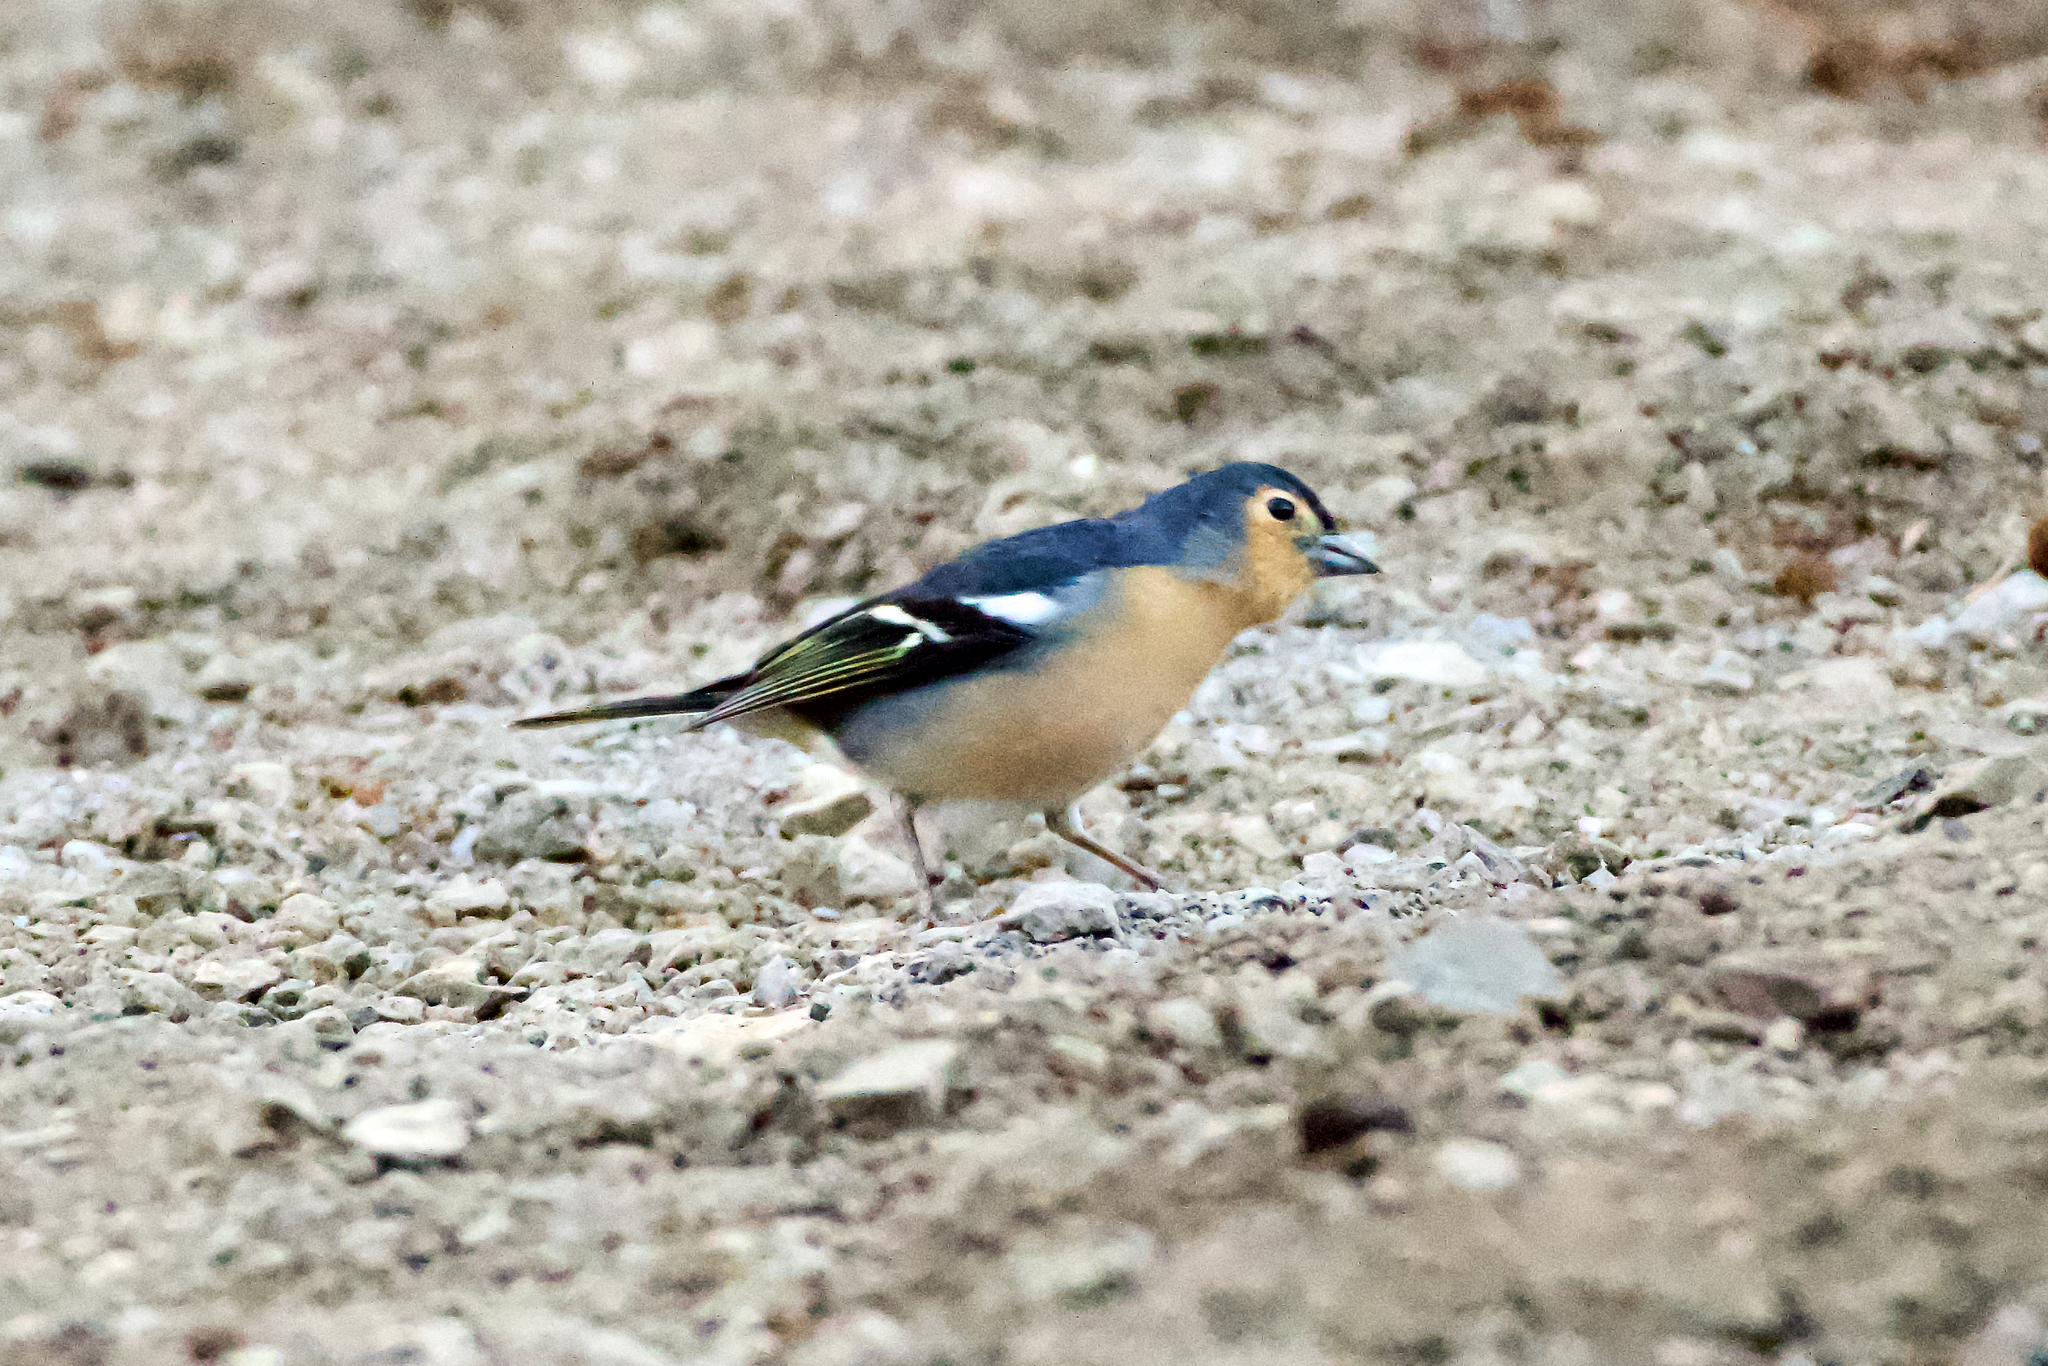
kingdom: Animalia
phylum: Chordata
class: Aves
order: Passeriformes
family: Fringillidae
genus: Fringilla
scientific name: Fringilla canariensis
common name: Canary islands chaffinch
